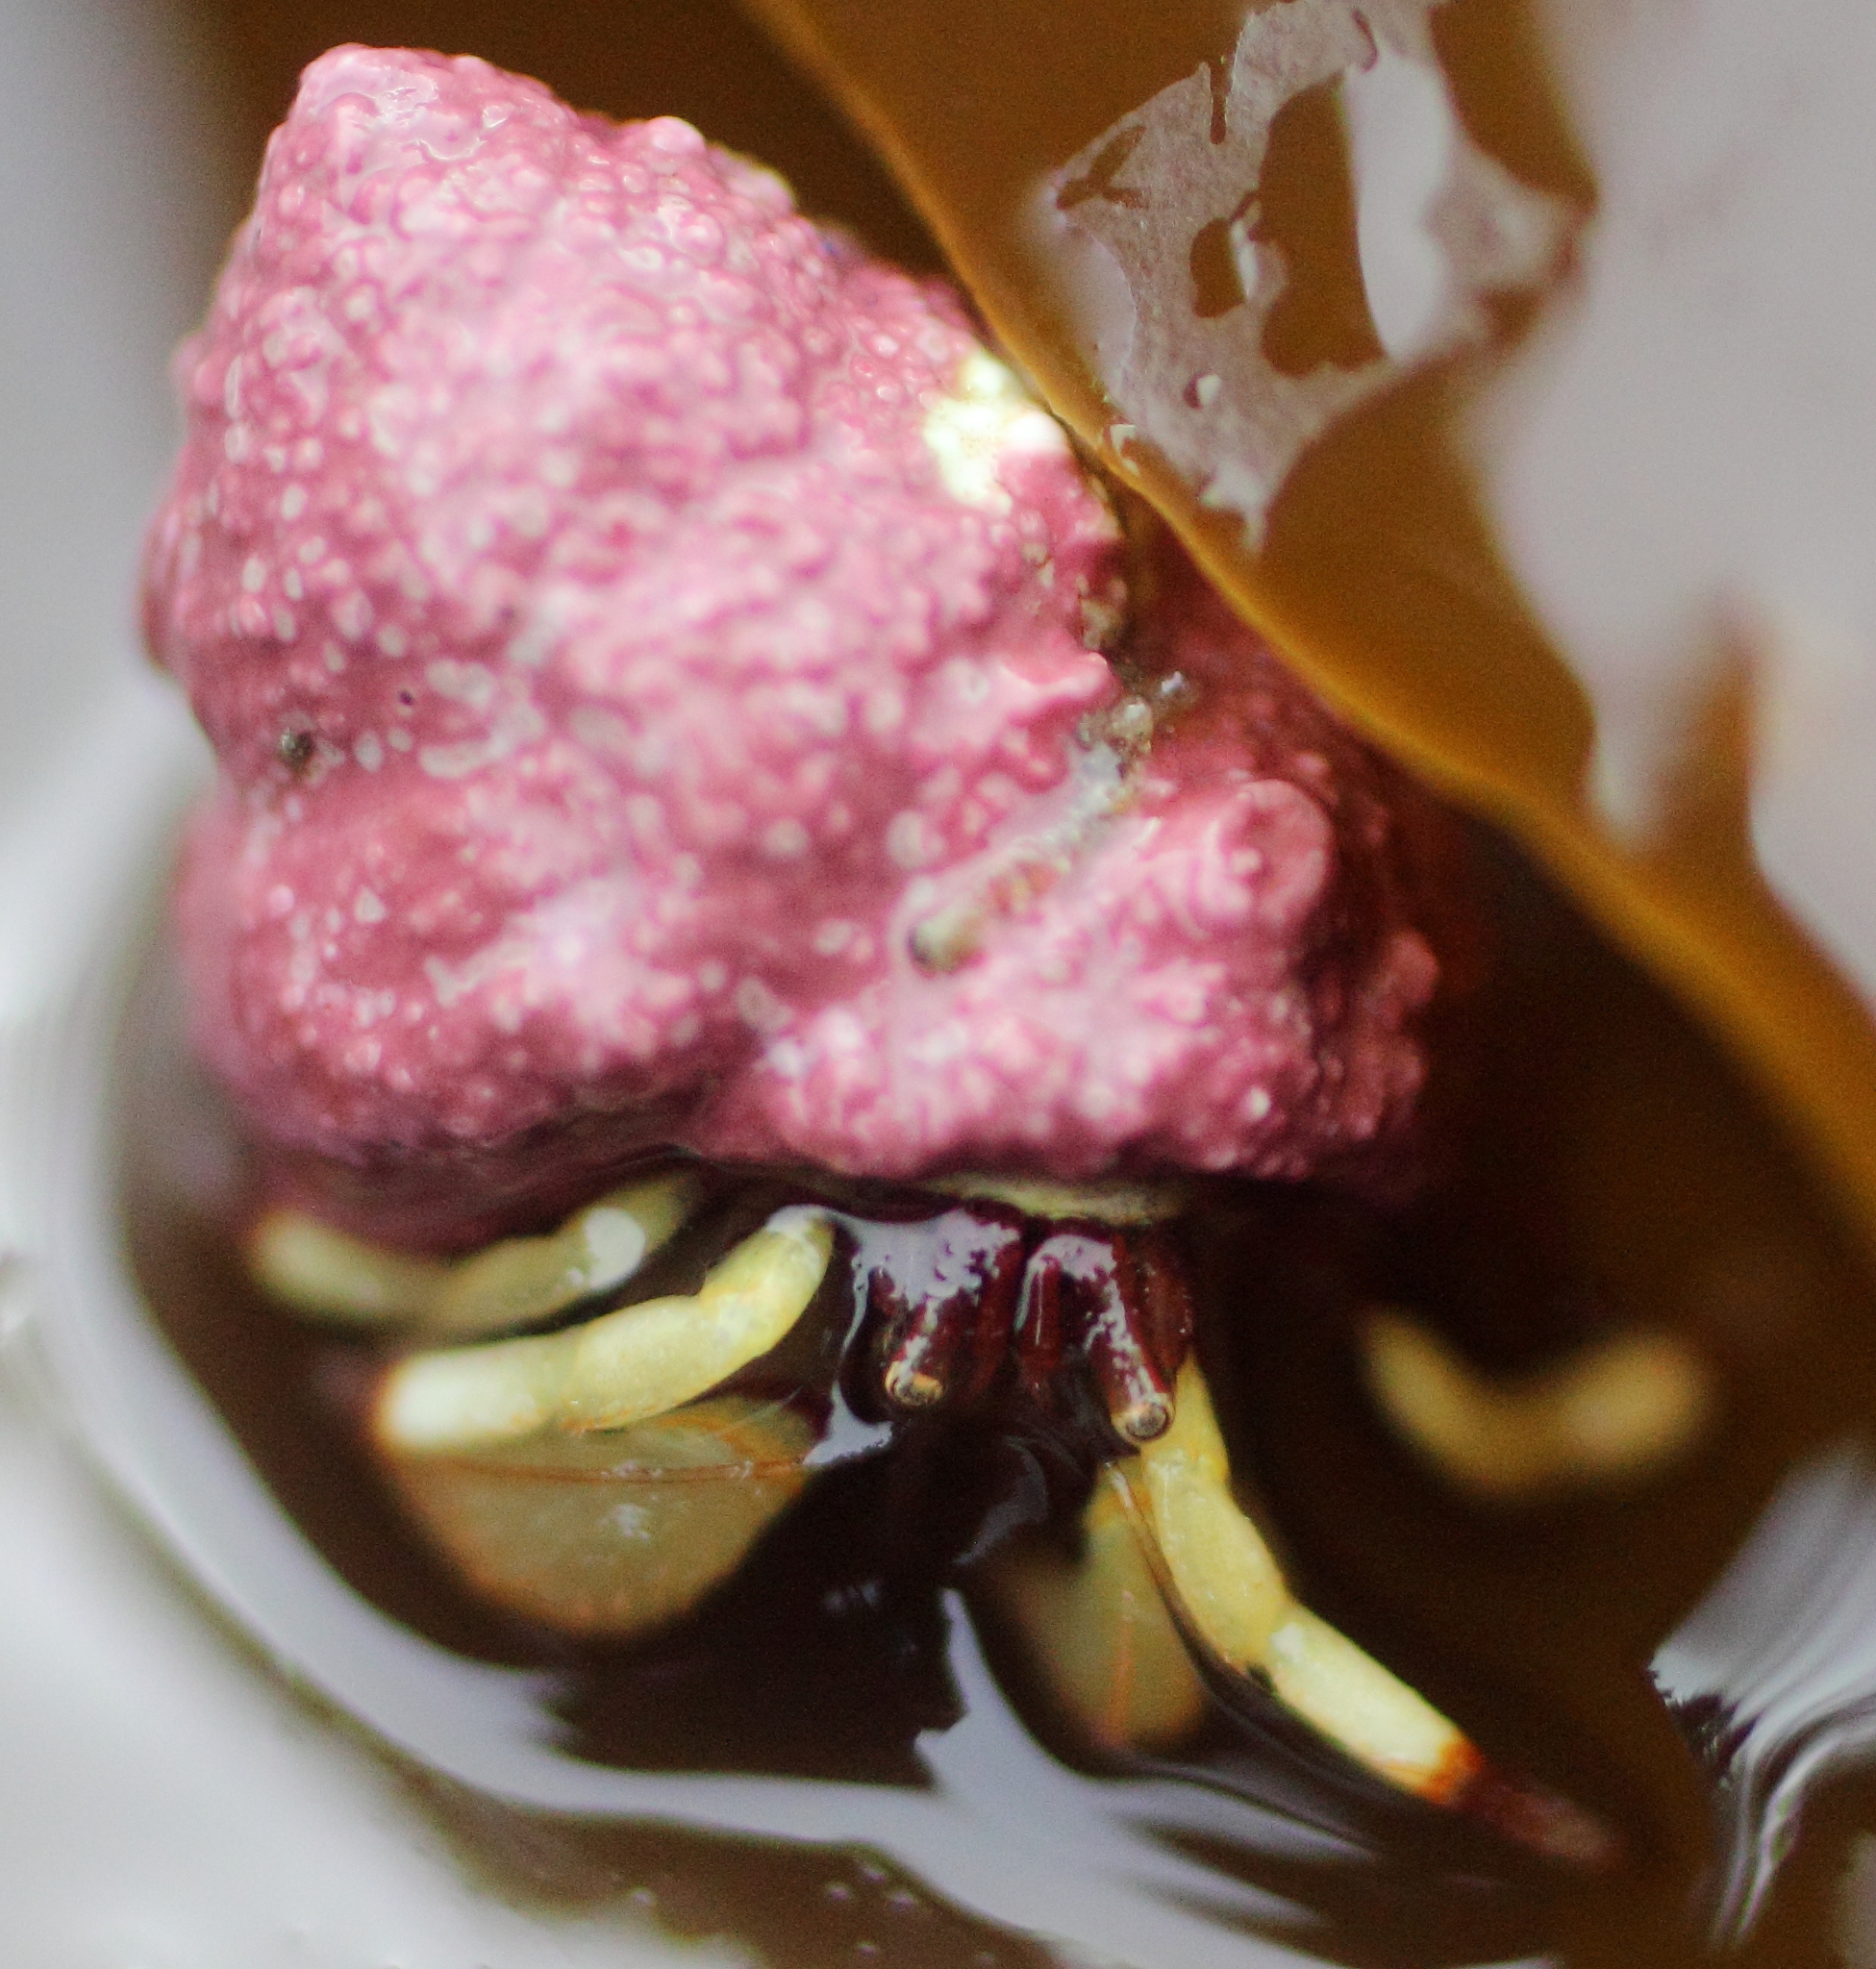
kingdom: Animalia
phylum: Arthropoda
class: Malacostraca
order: Decapoda
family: Paguridae
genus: Pagurus
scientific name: Pagurus beringanus
